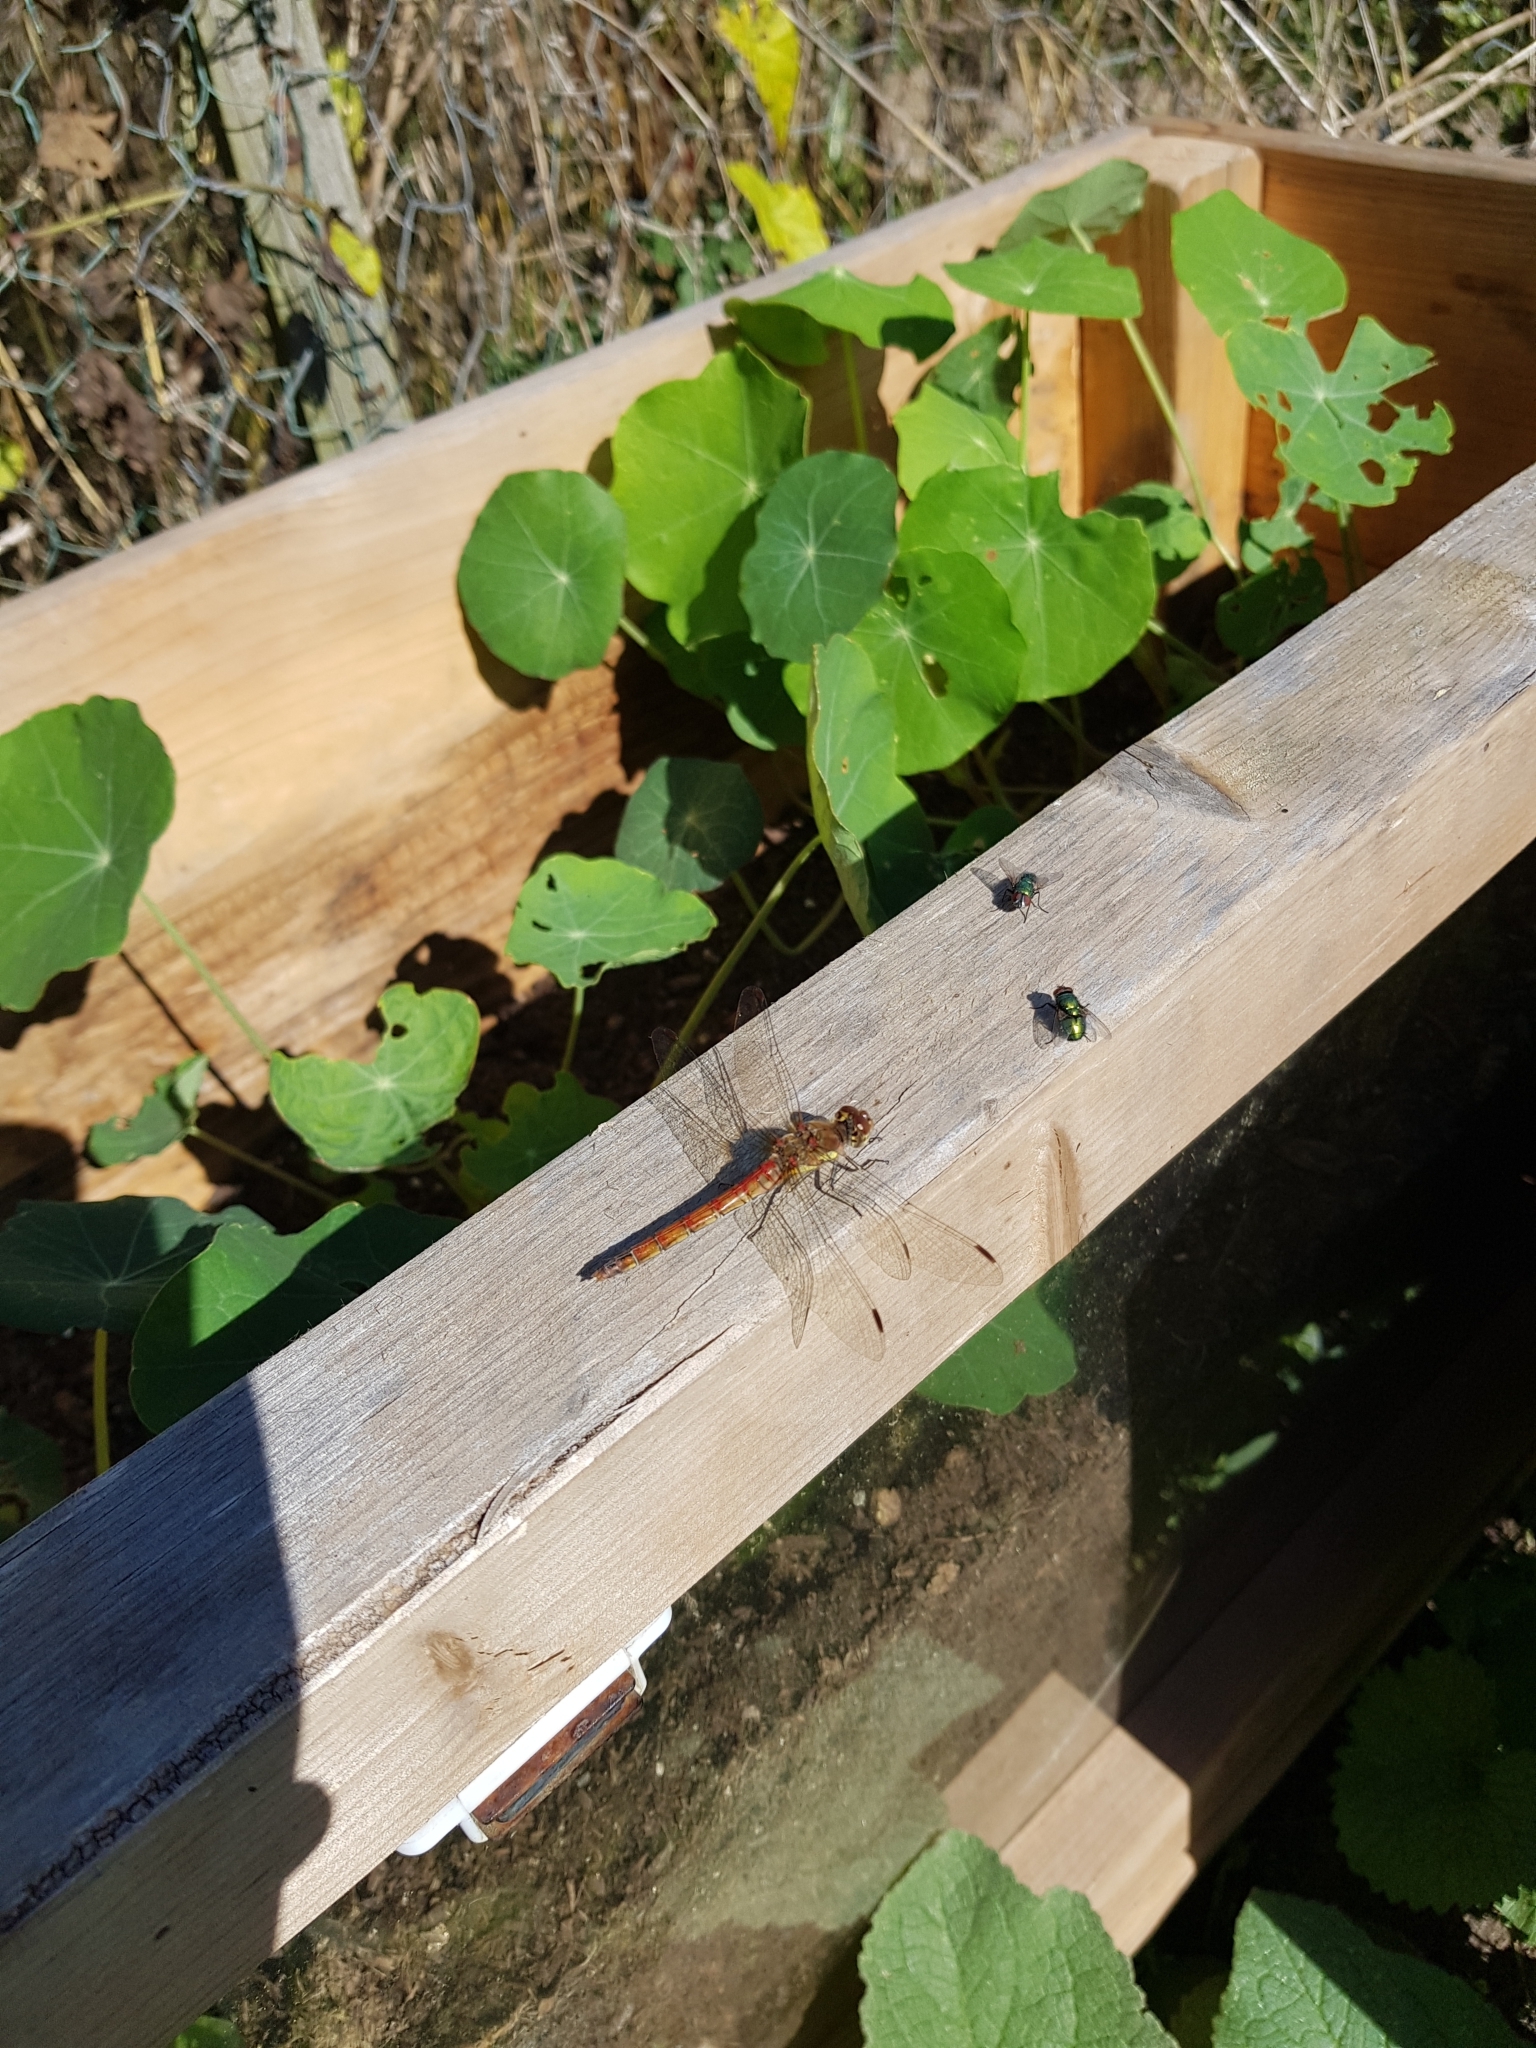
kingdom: Animalia
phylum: Arthropoda
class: Insecta
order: Odonata
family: Libellulidae
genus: Sympetrum
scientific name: Sympetrum striolatum
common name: Common darter
